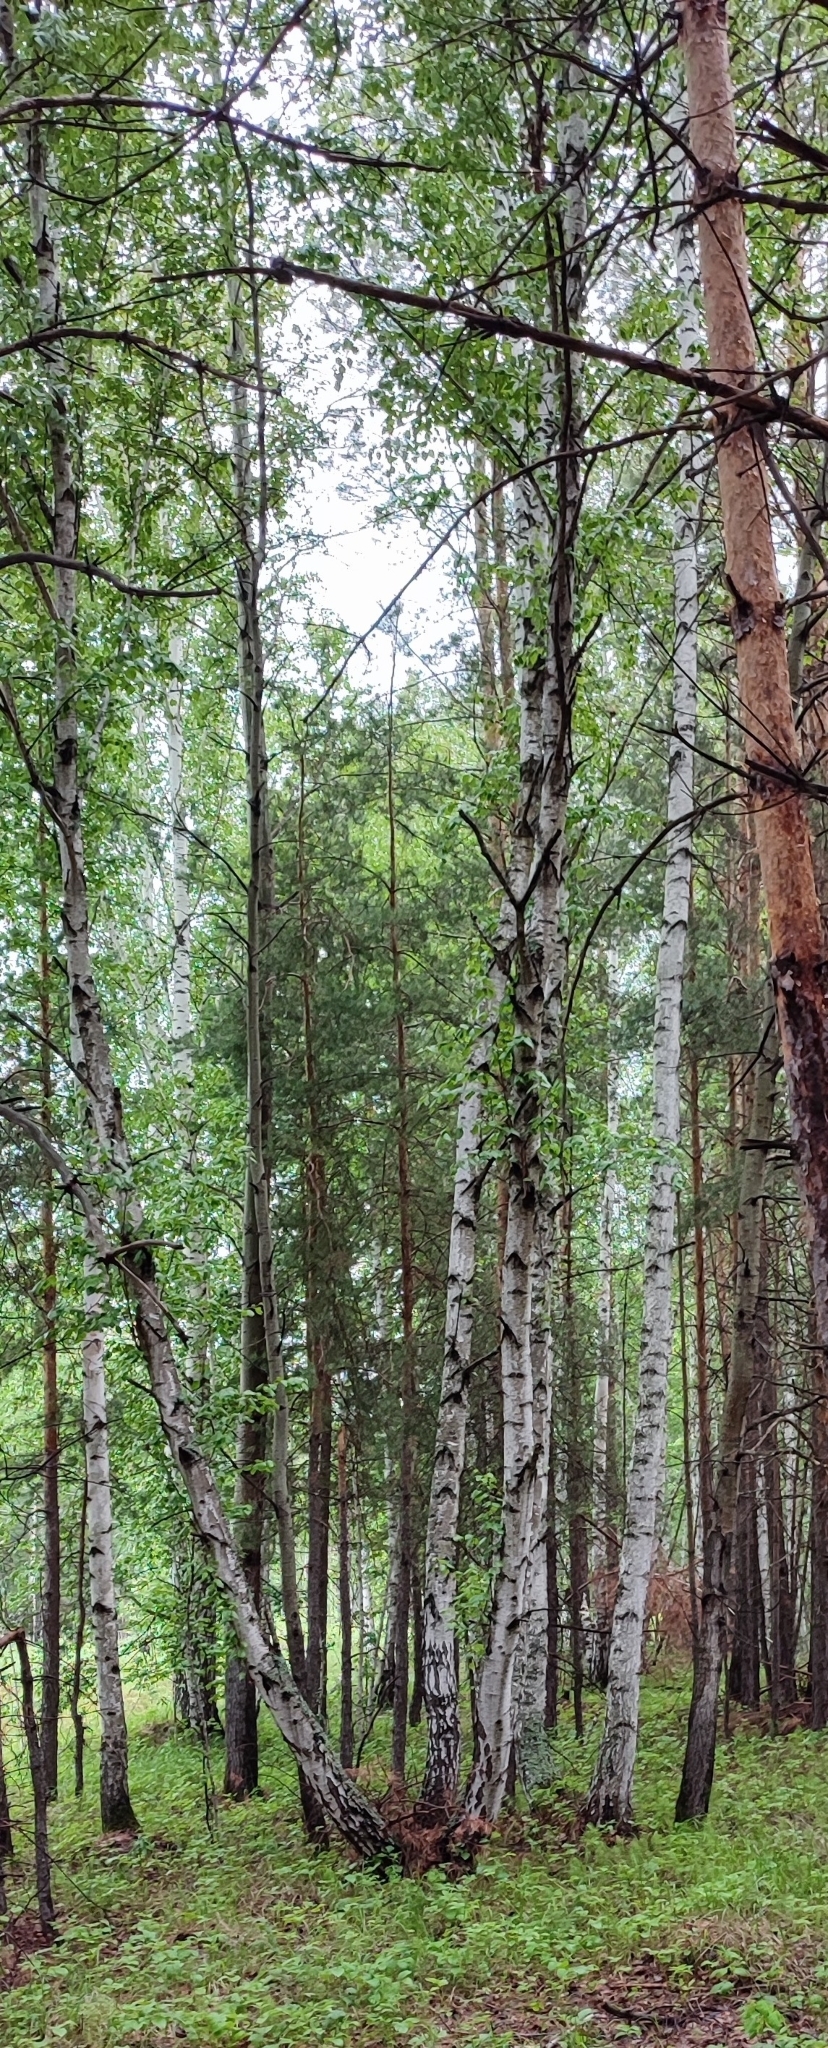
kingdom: Plantae
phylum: Tracheophyta
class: Magnoliopsida
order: Fagales
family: Betulaceae
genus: Betula
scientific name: Betula pendula
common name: Silver birch
